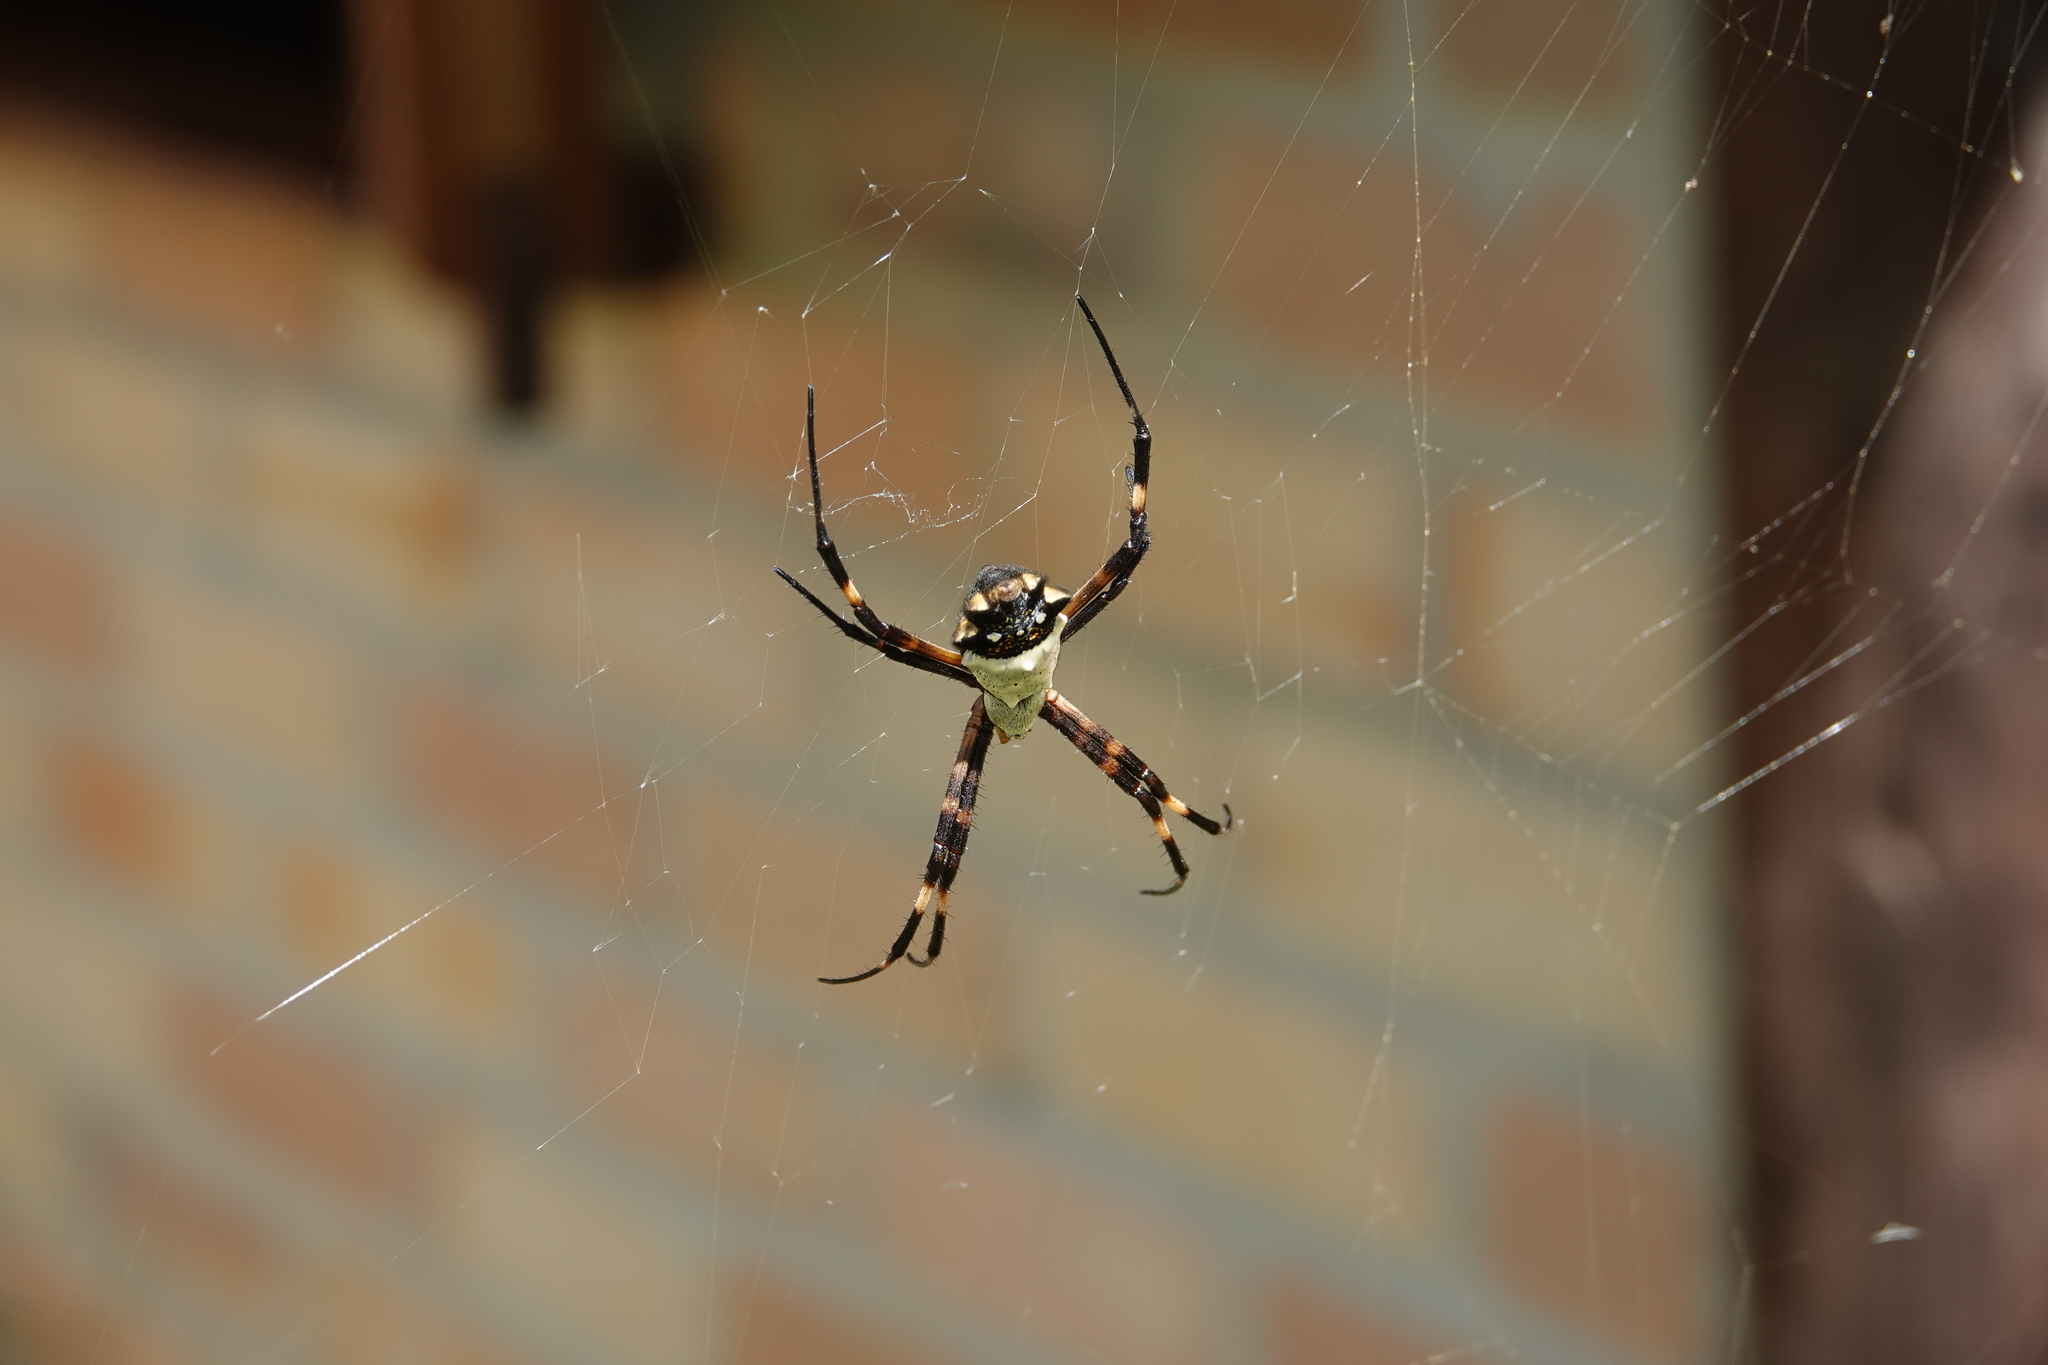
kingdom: Animalia
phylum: Arthropoda
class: Arachnida
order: Araneae
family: Araneidae
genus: Argiope
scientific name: Argiope argentata
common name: Orb weavers
